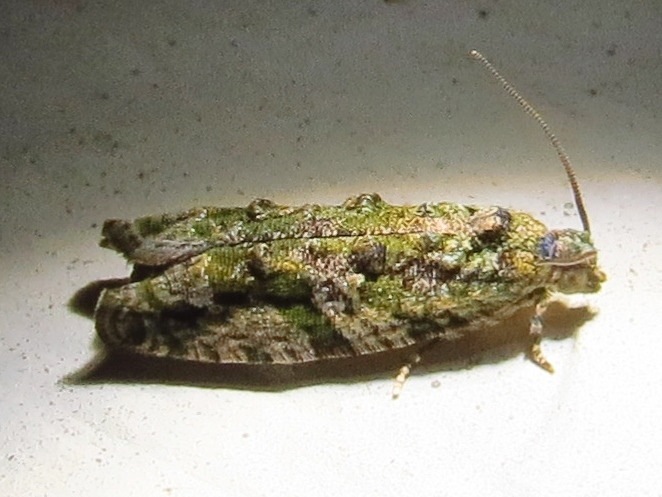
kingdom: Animalia
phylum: Arthropoda
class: Insecta
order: Lepidoptera
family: Tortricidae
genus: Proteoteras
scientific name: Proteoteras aesculana
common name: Maple twig borer moth
